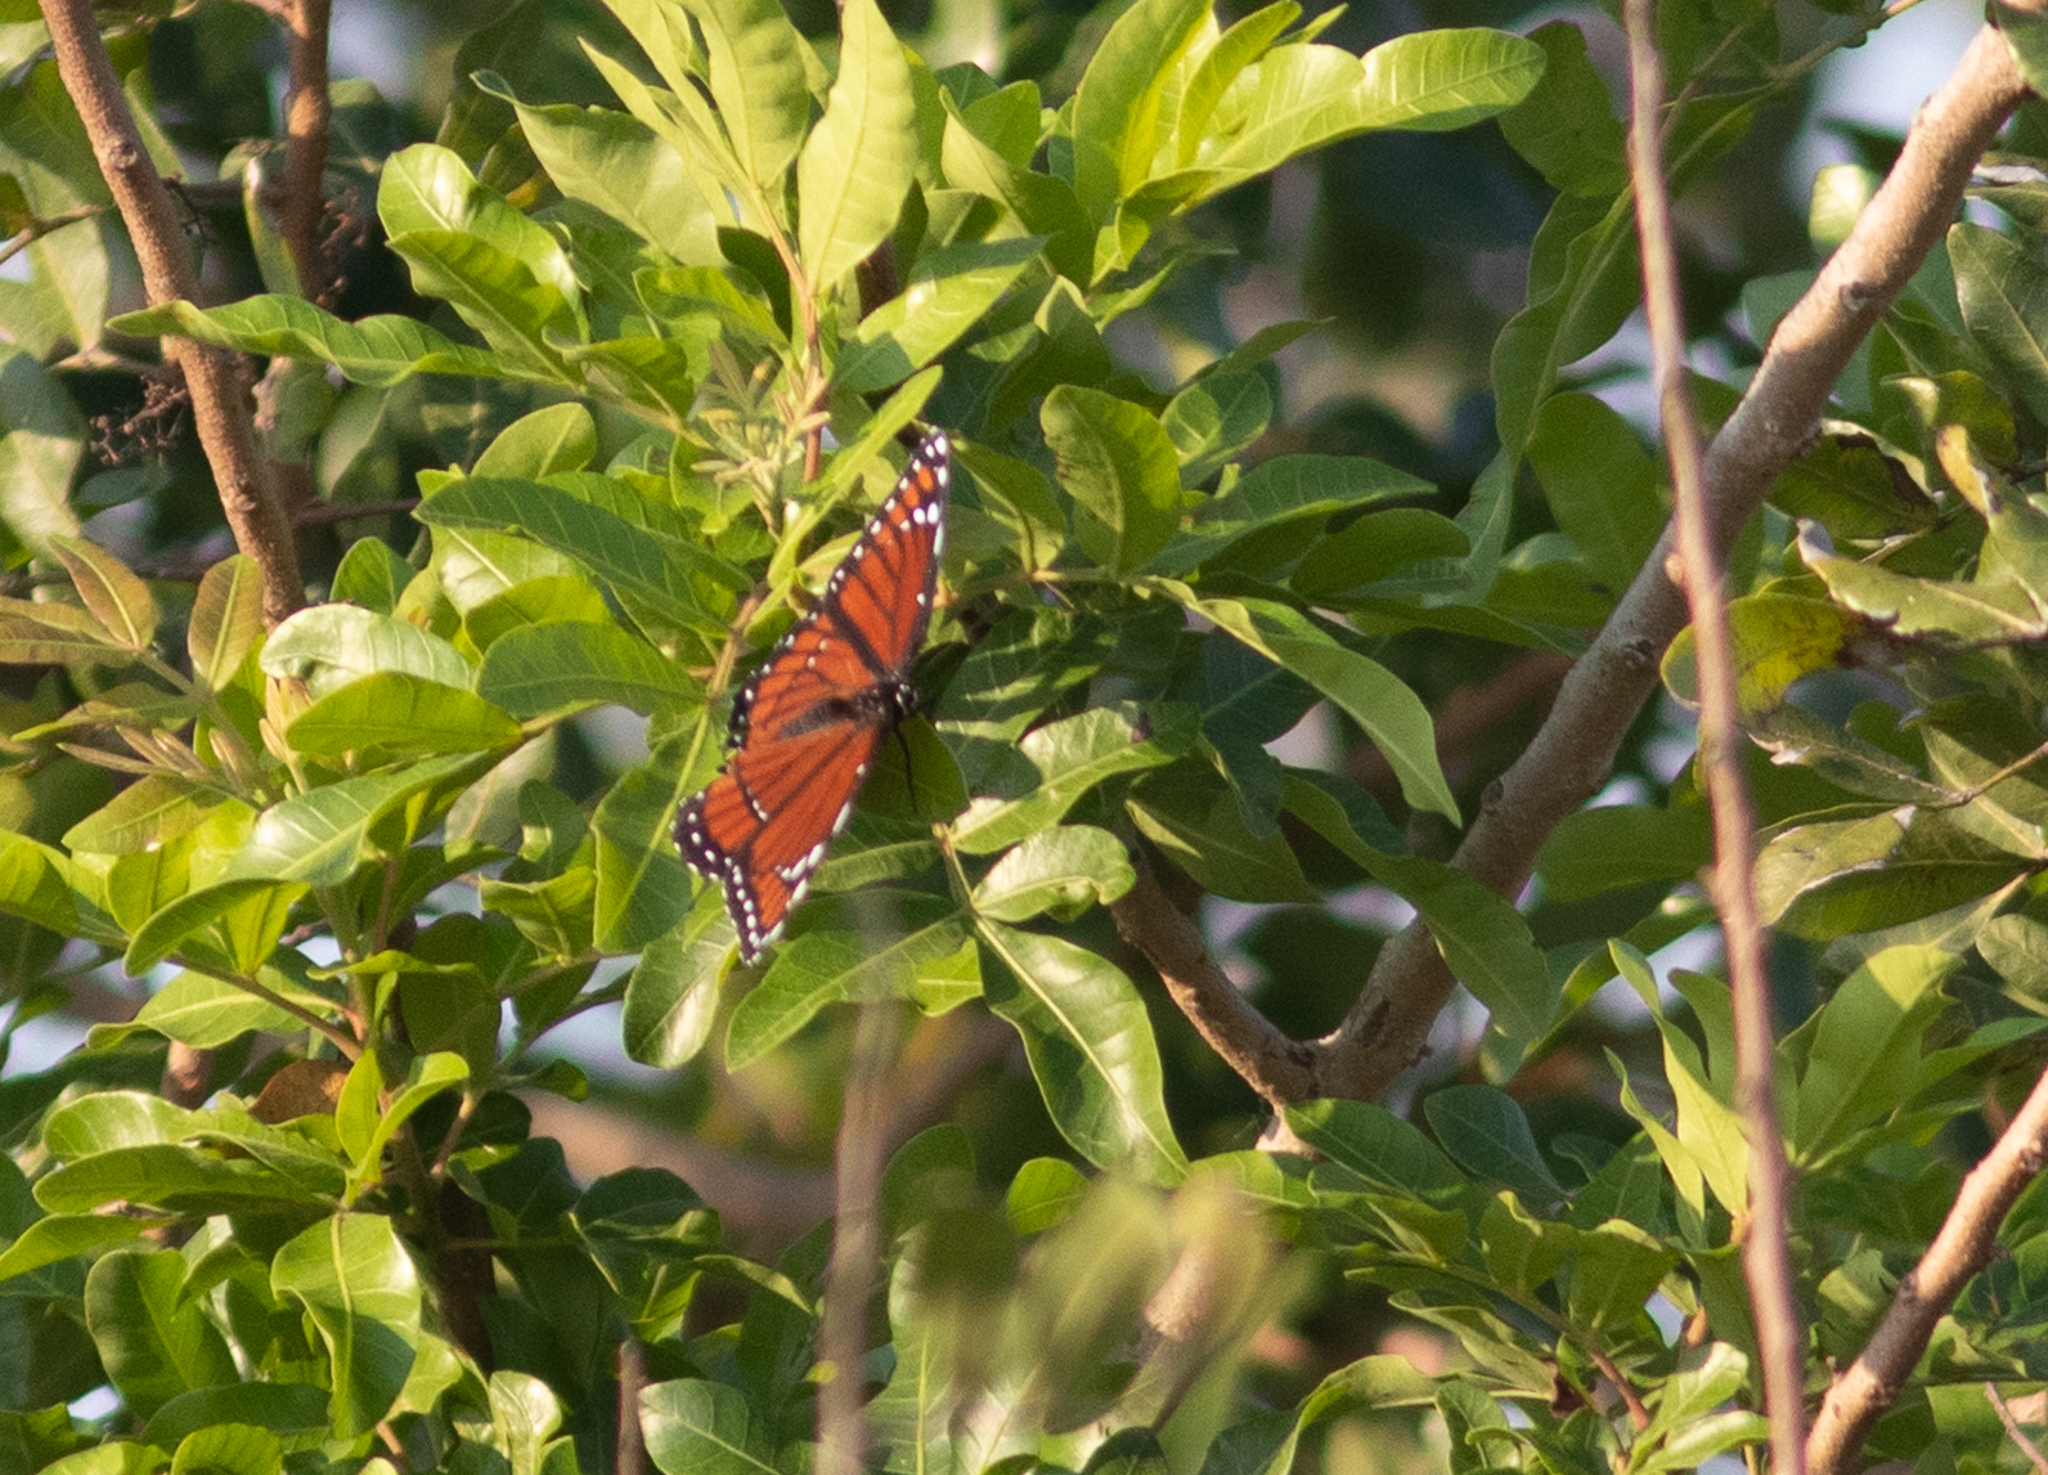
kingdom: Animalia
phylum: Arthropoda
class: Insecta
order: Lepidoptera
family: Nymphalidae
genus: Limenitis
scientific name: Limenitis archippus
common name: Viceroy
